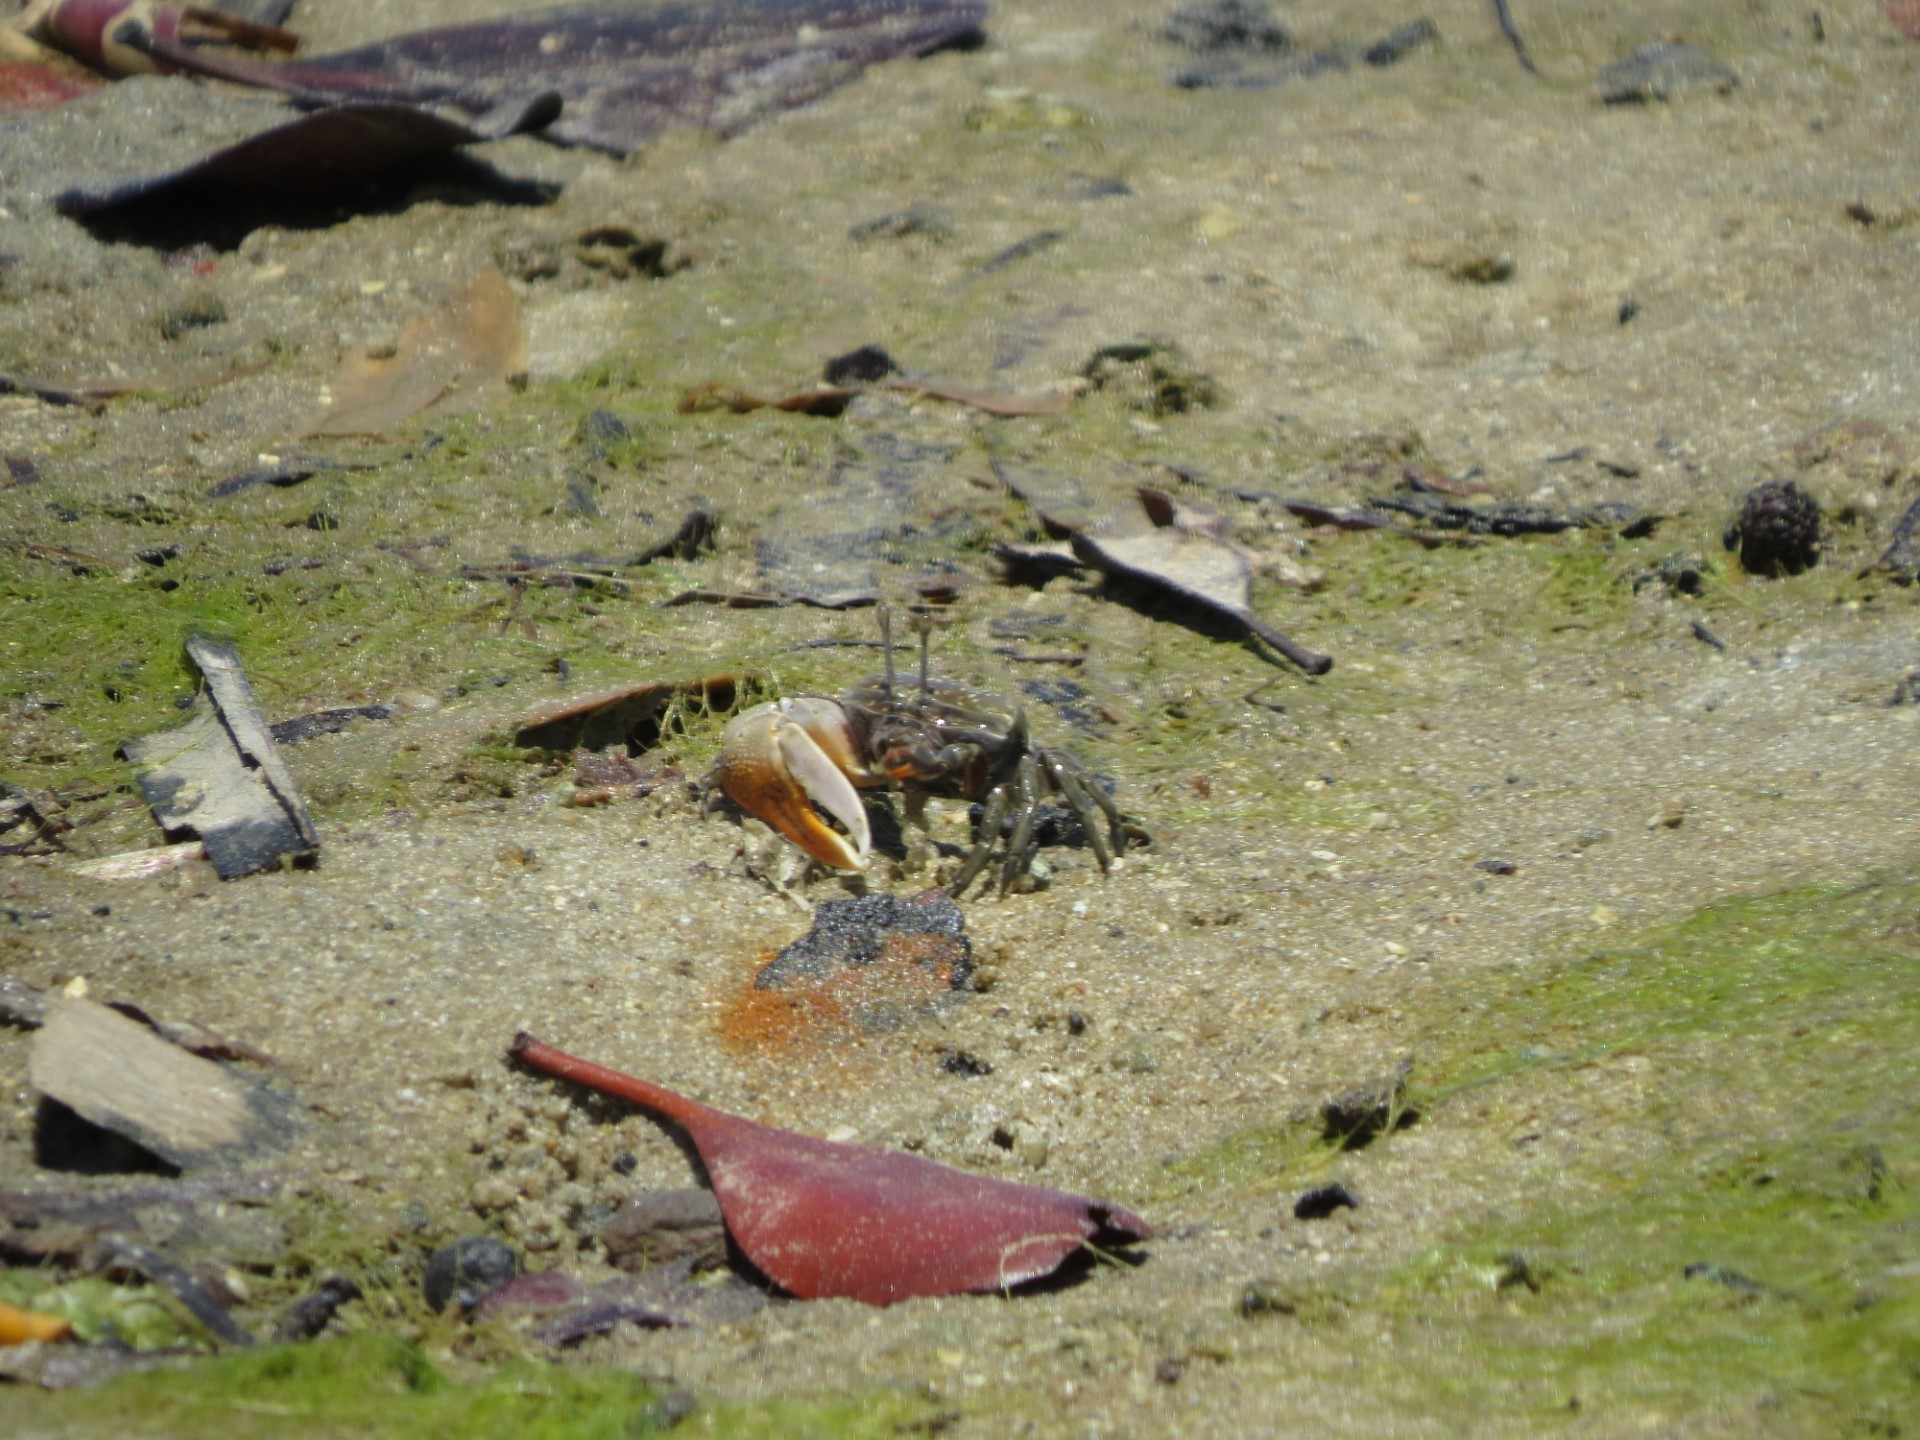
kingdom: Animalia
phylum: Arthropoda
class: Malacostraca
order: Decapoda
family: Ocypodidae
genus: Gelasimus
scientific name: Gelasimus hesperiae
